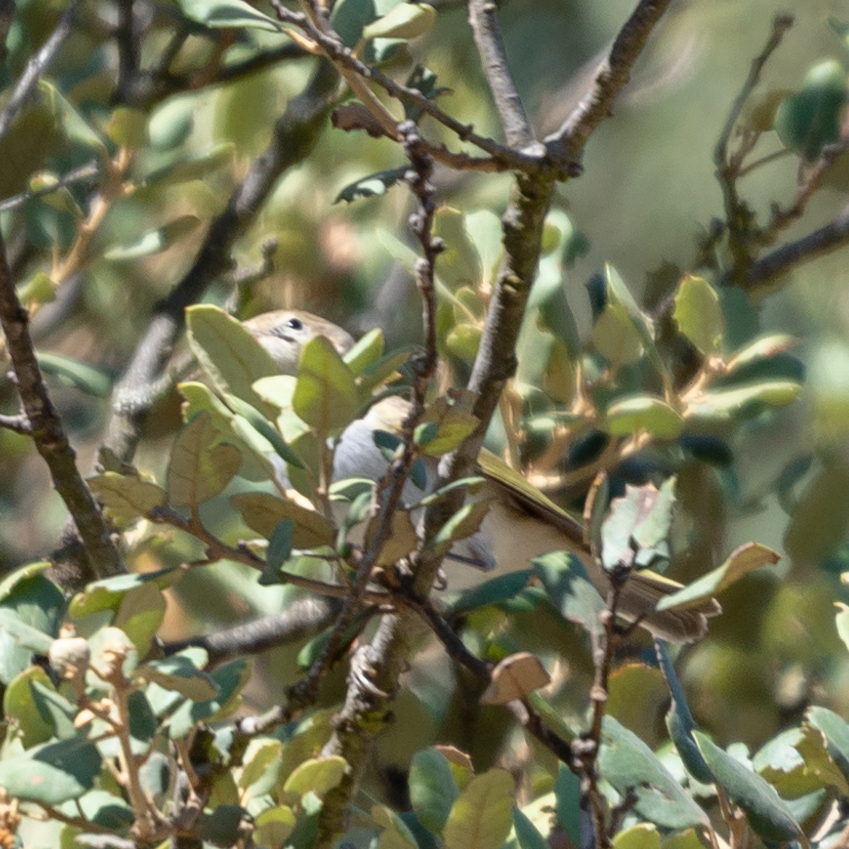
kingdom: Animalia
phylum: Chordata
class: Aves
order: Passeriformes
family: Phylloscopidae
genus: Phylloscopus
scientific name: Phylloscopus bonelli
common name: Western bonelli's warbler
